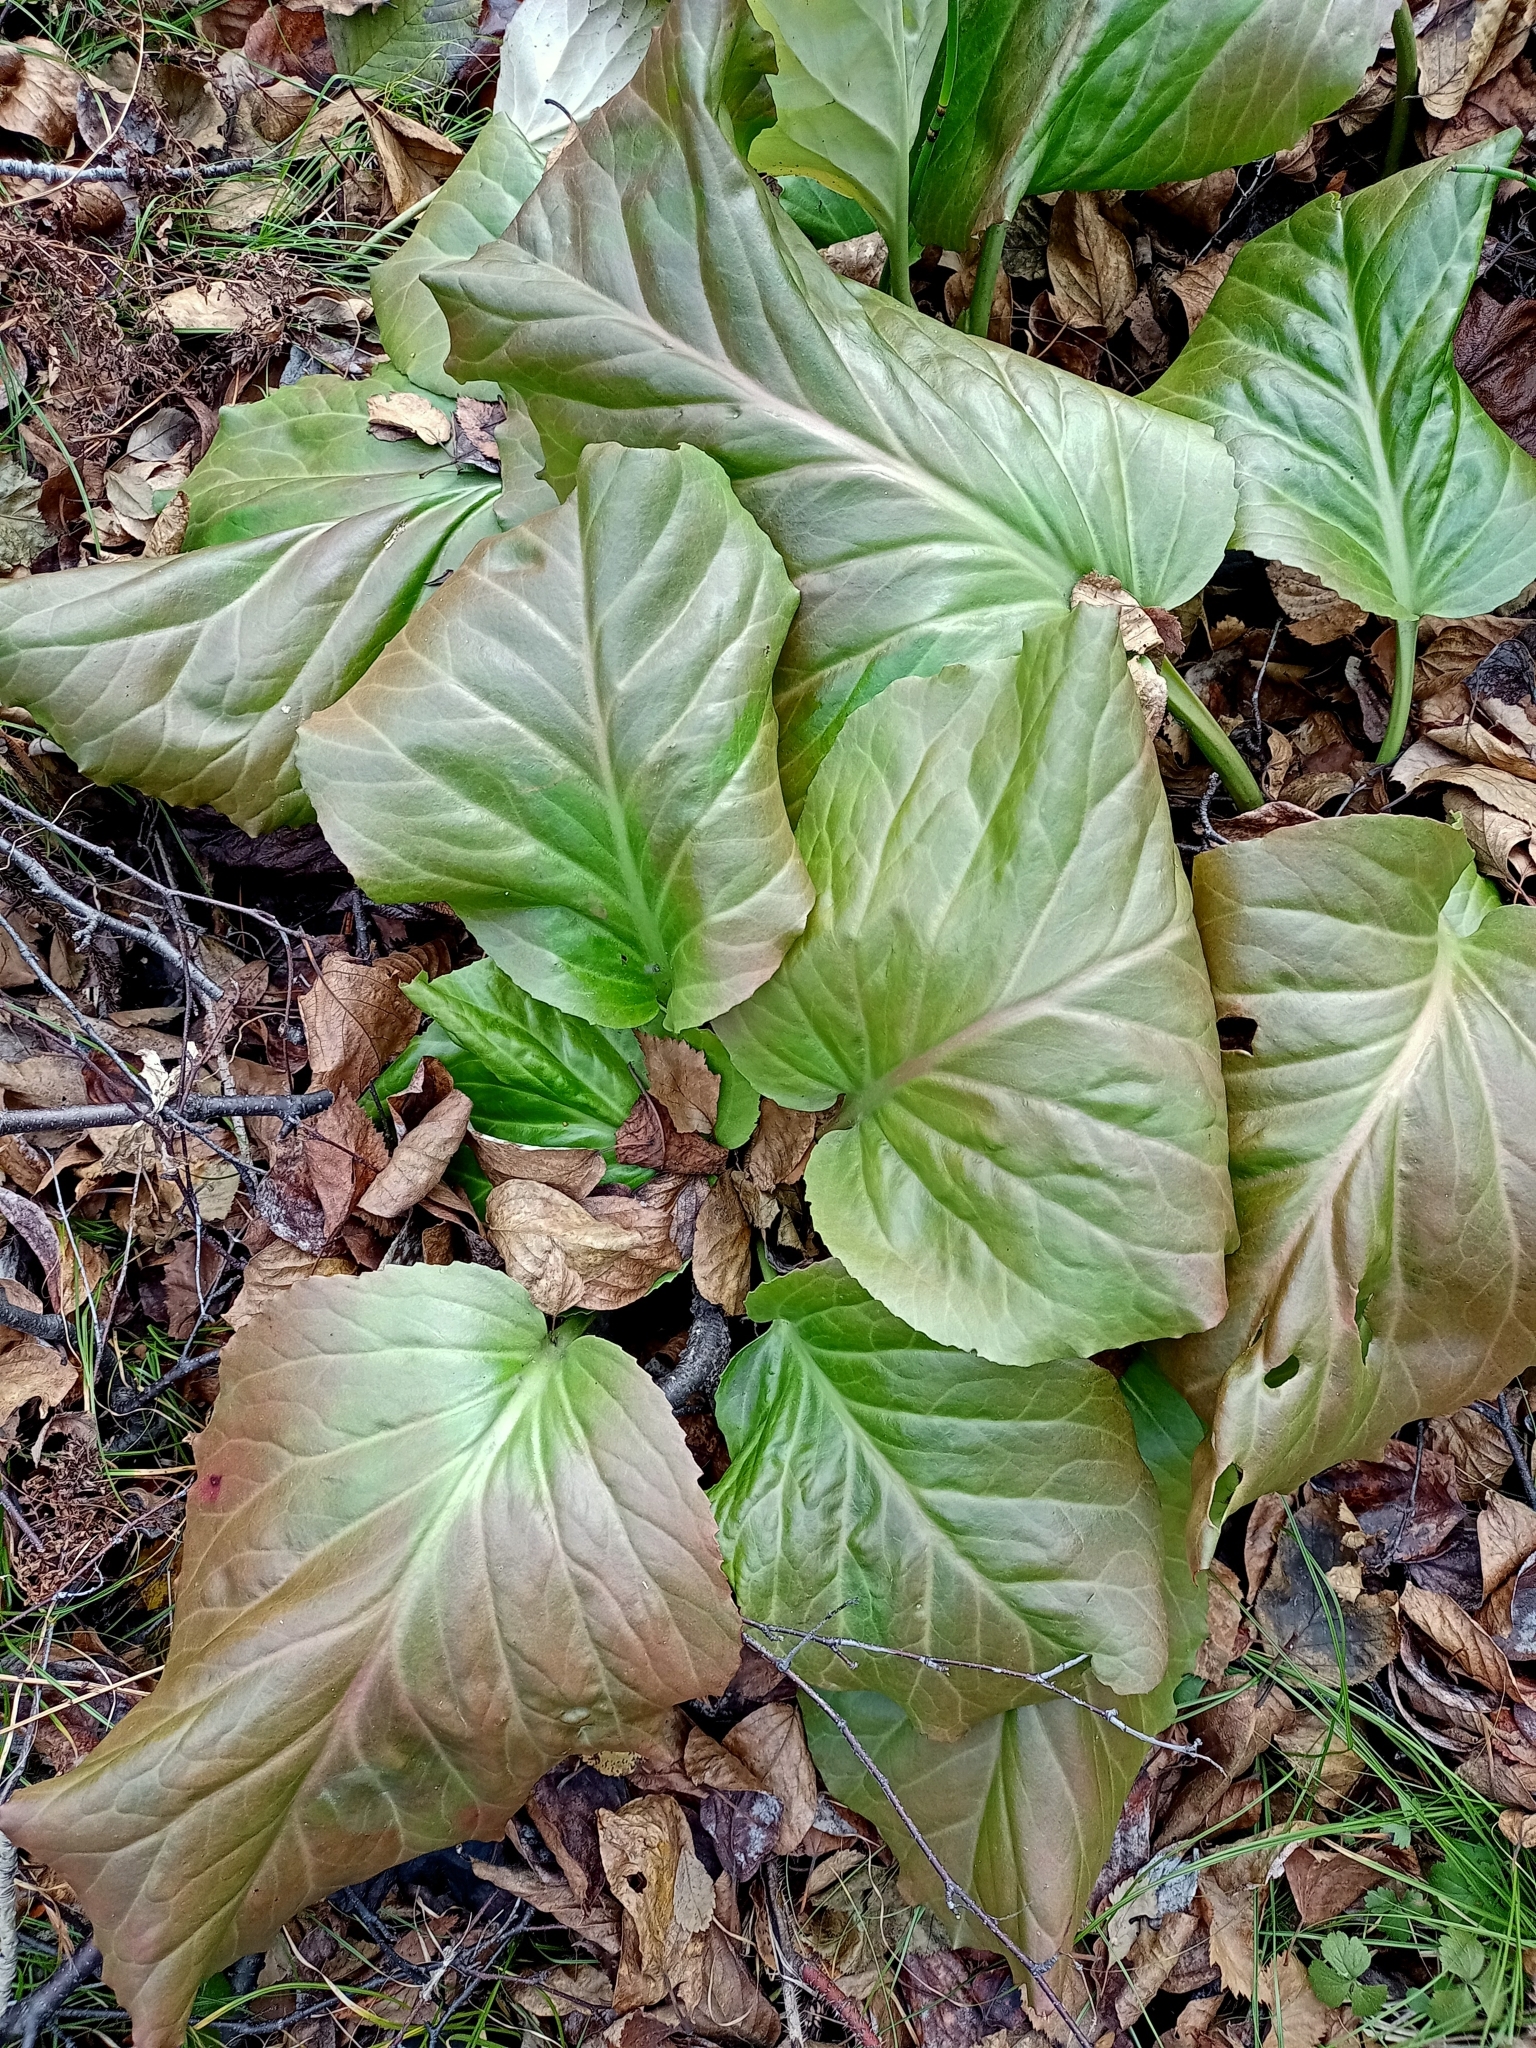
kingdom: Plantae
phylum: Tracheophyta
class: Magnoliopsida
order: Saxifragales
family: Saxifragaceae
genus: Bergenia
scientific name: Bergenia crassifolia
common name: Elephant-ears
